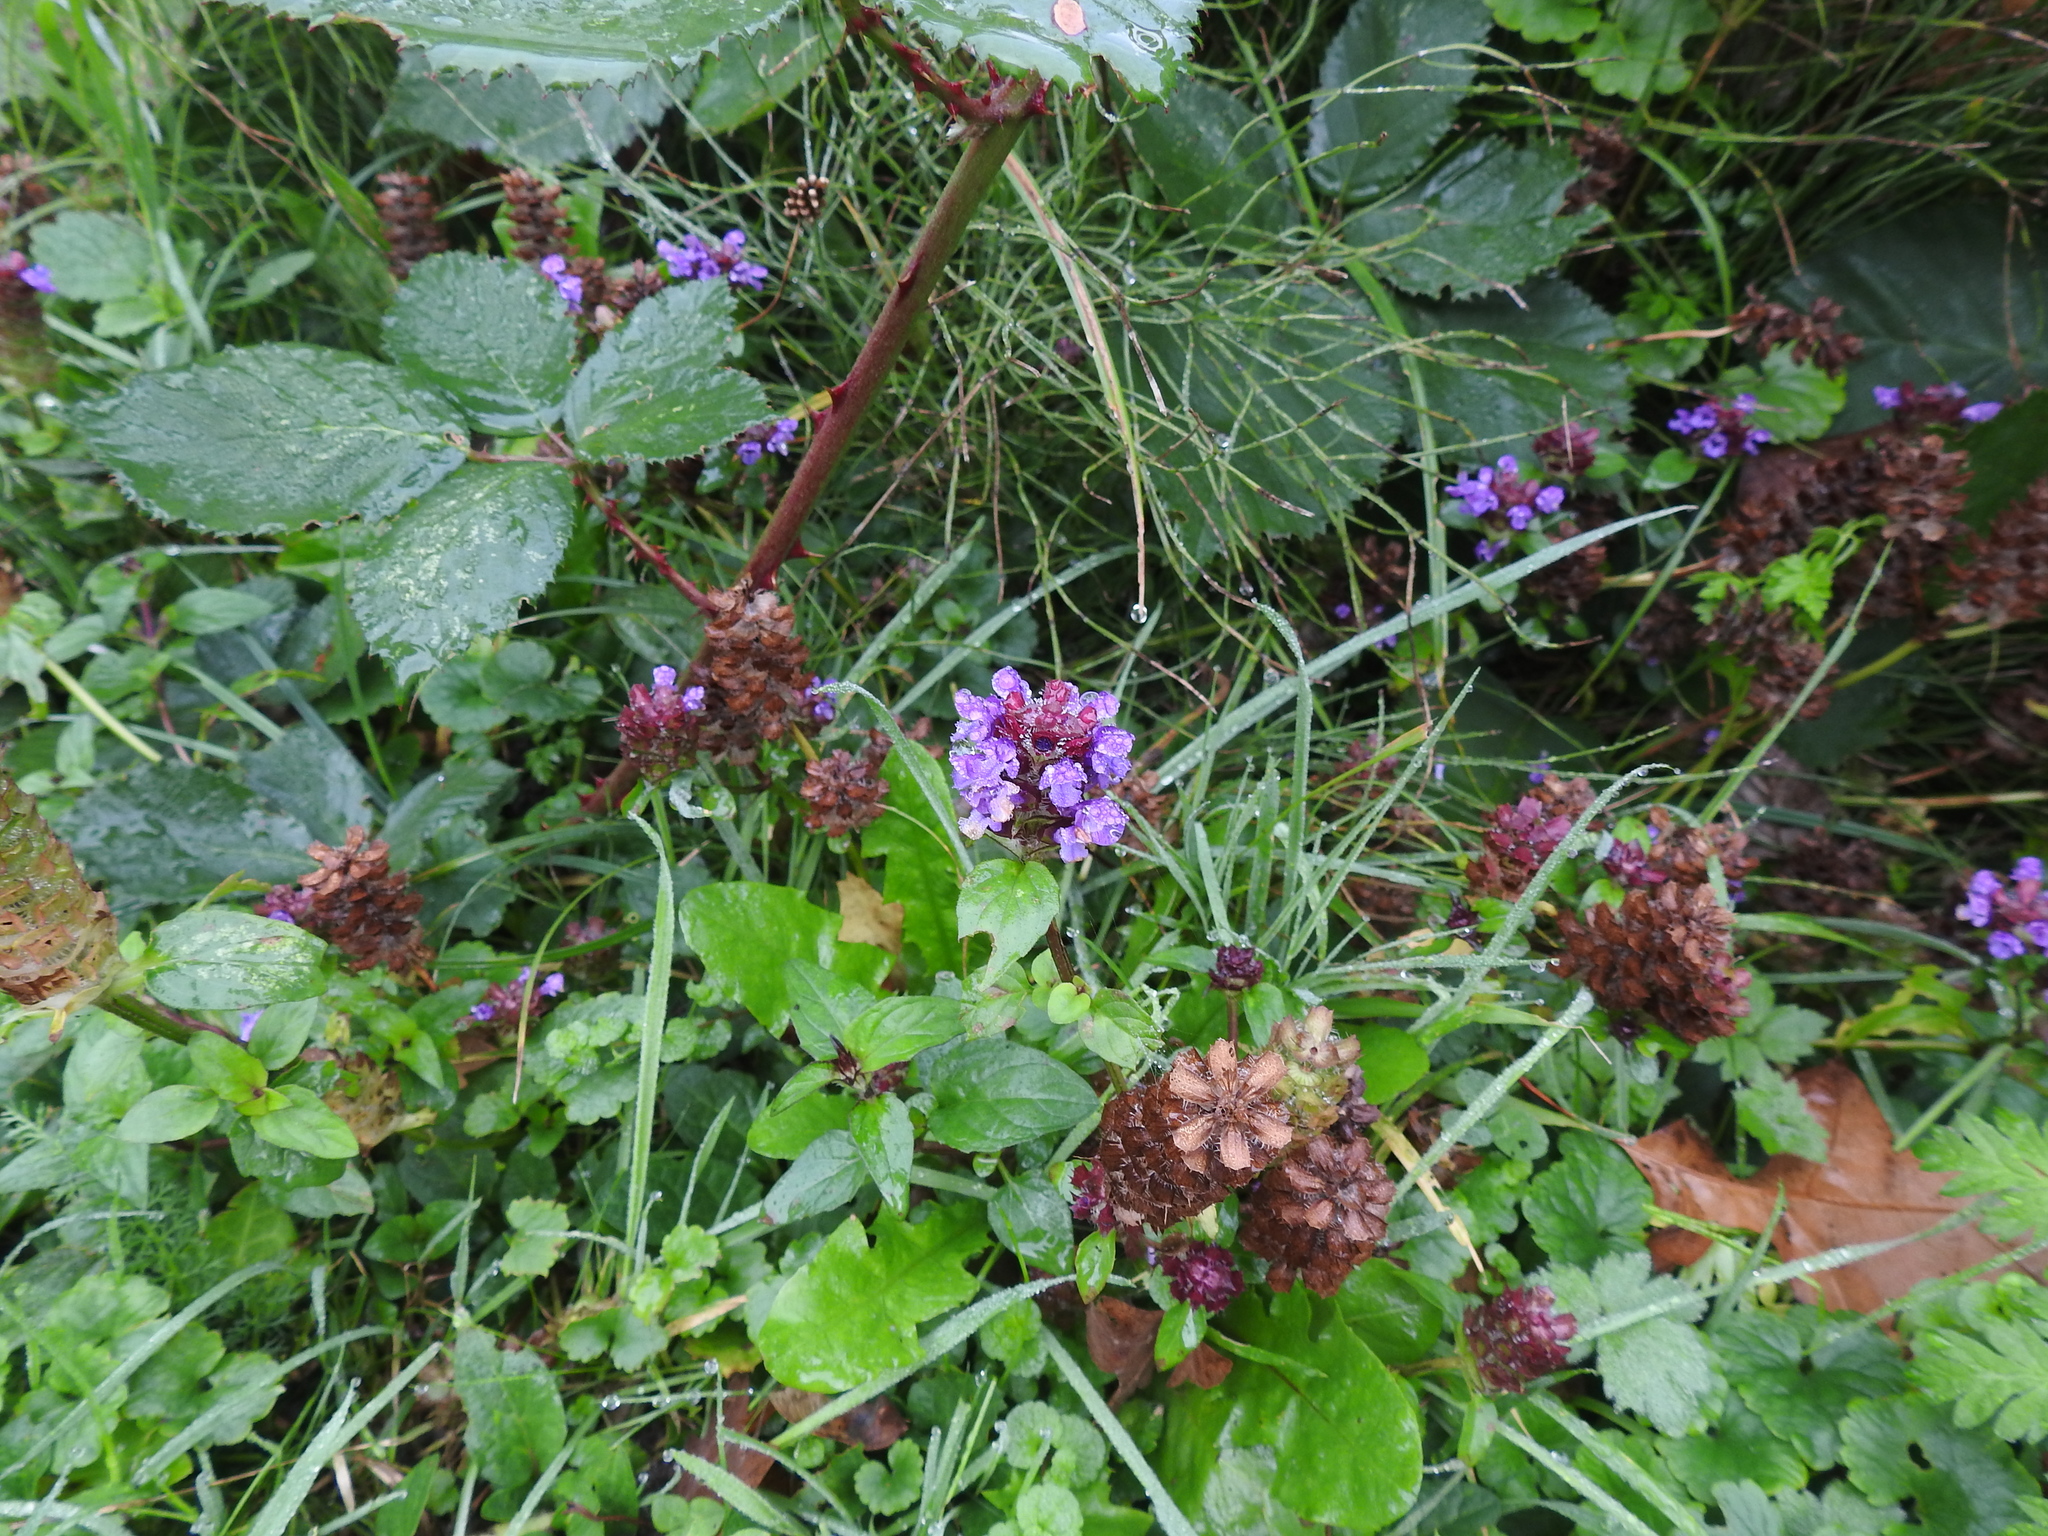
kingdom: Plantae
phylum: Tracheophyta
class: Magnoliopsida
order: Lamiales
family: Lamiaceae
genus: Prunella
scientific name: Prunella vulgaris
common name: Heal-all
